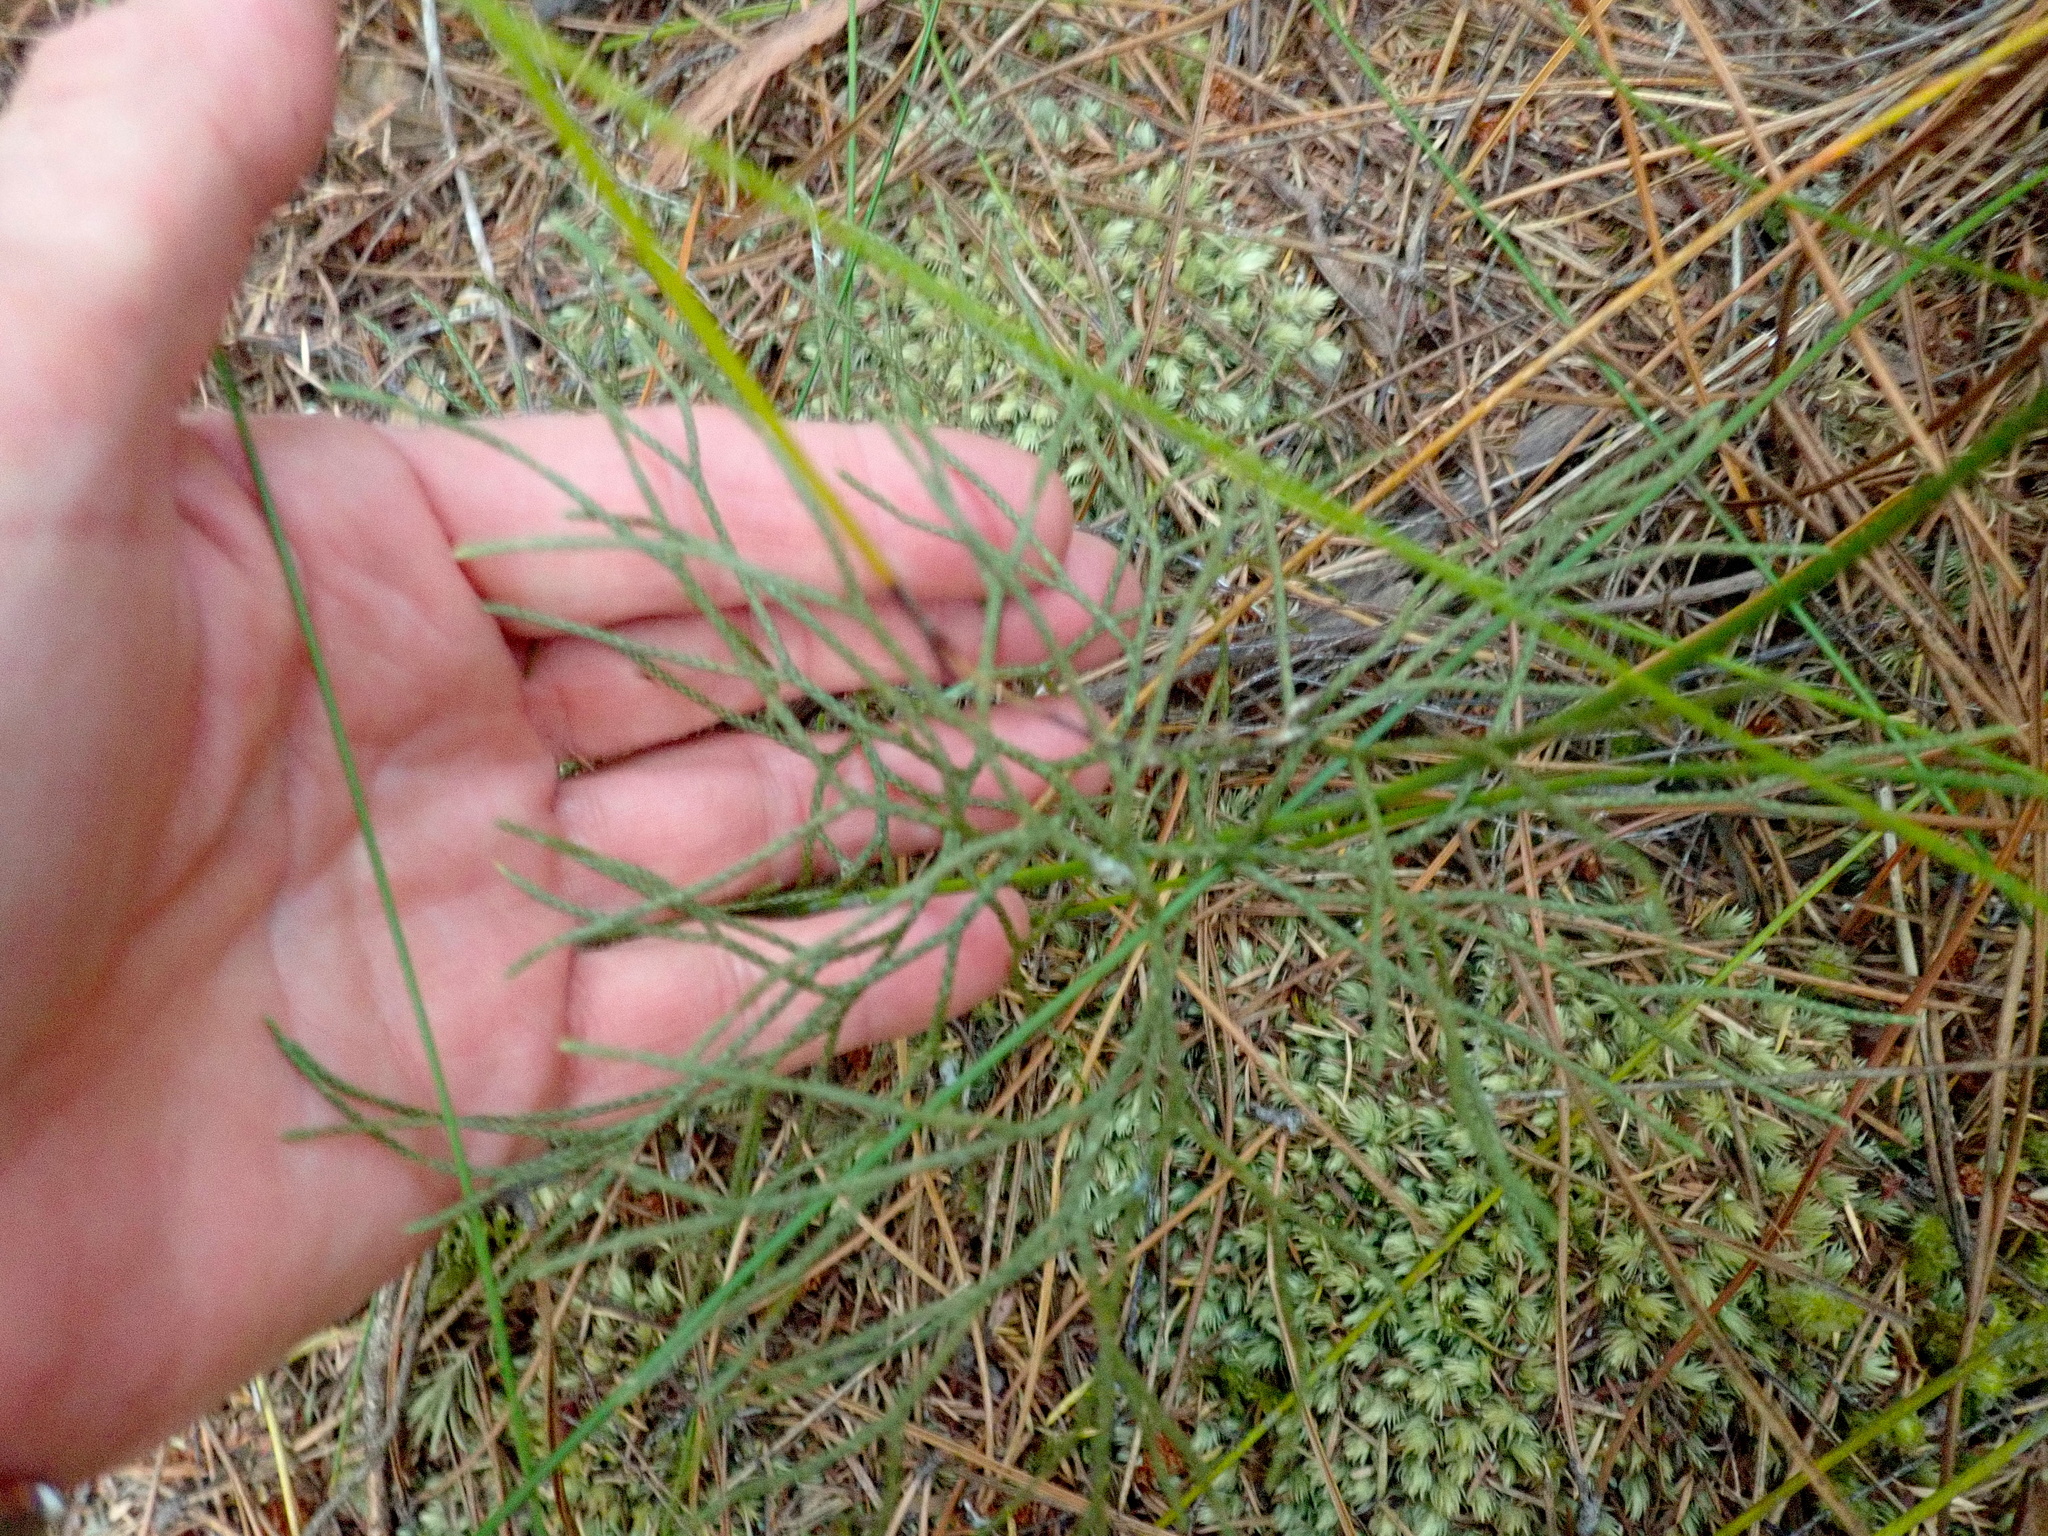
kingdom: Plantae
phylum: Tracheophyta
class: Lycopodiopsida
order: Lycopodiales
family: Lycopodiaceae
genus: Pseudolycopodium
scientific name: Pseudolycopodium densum
